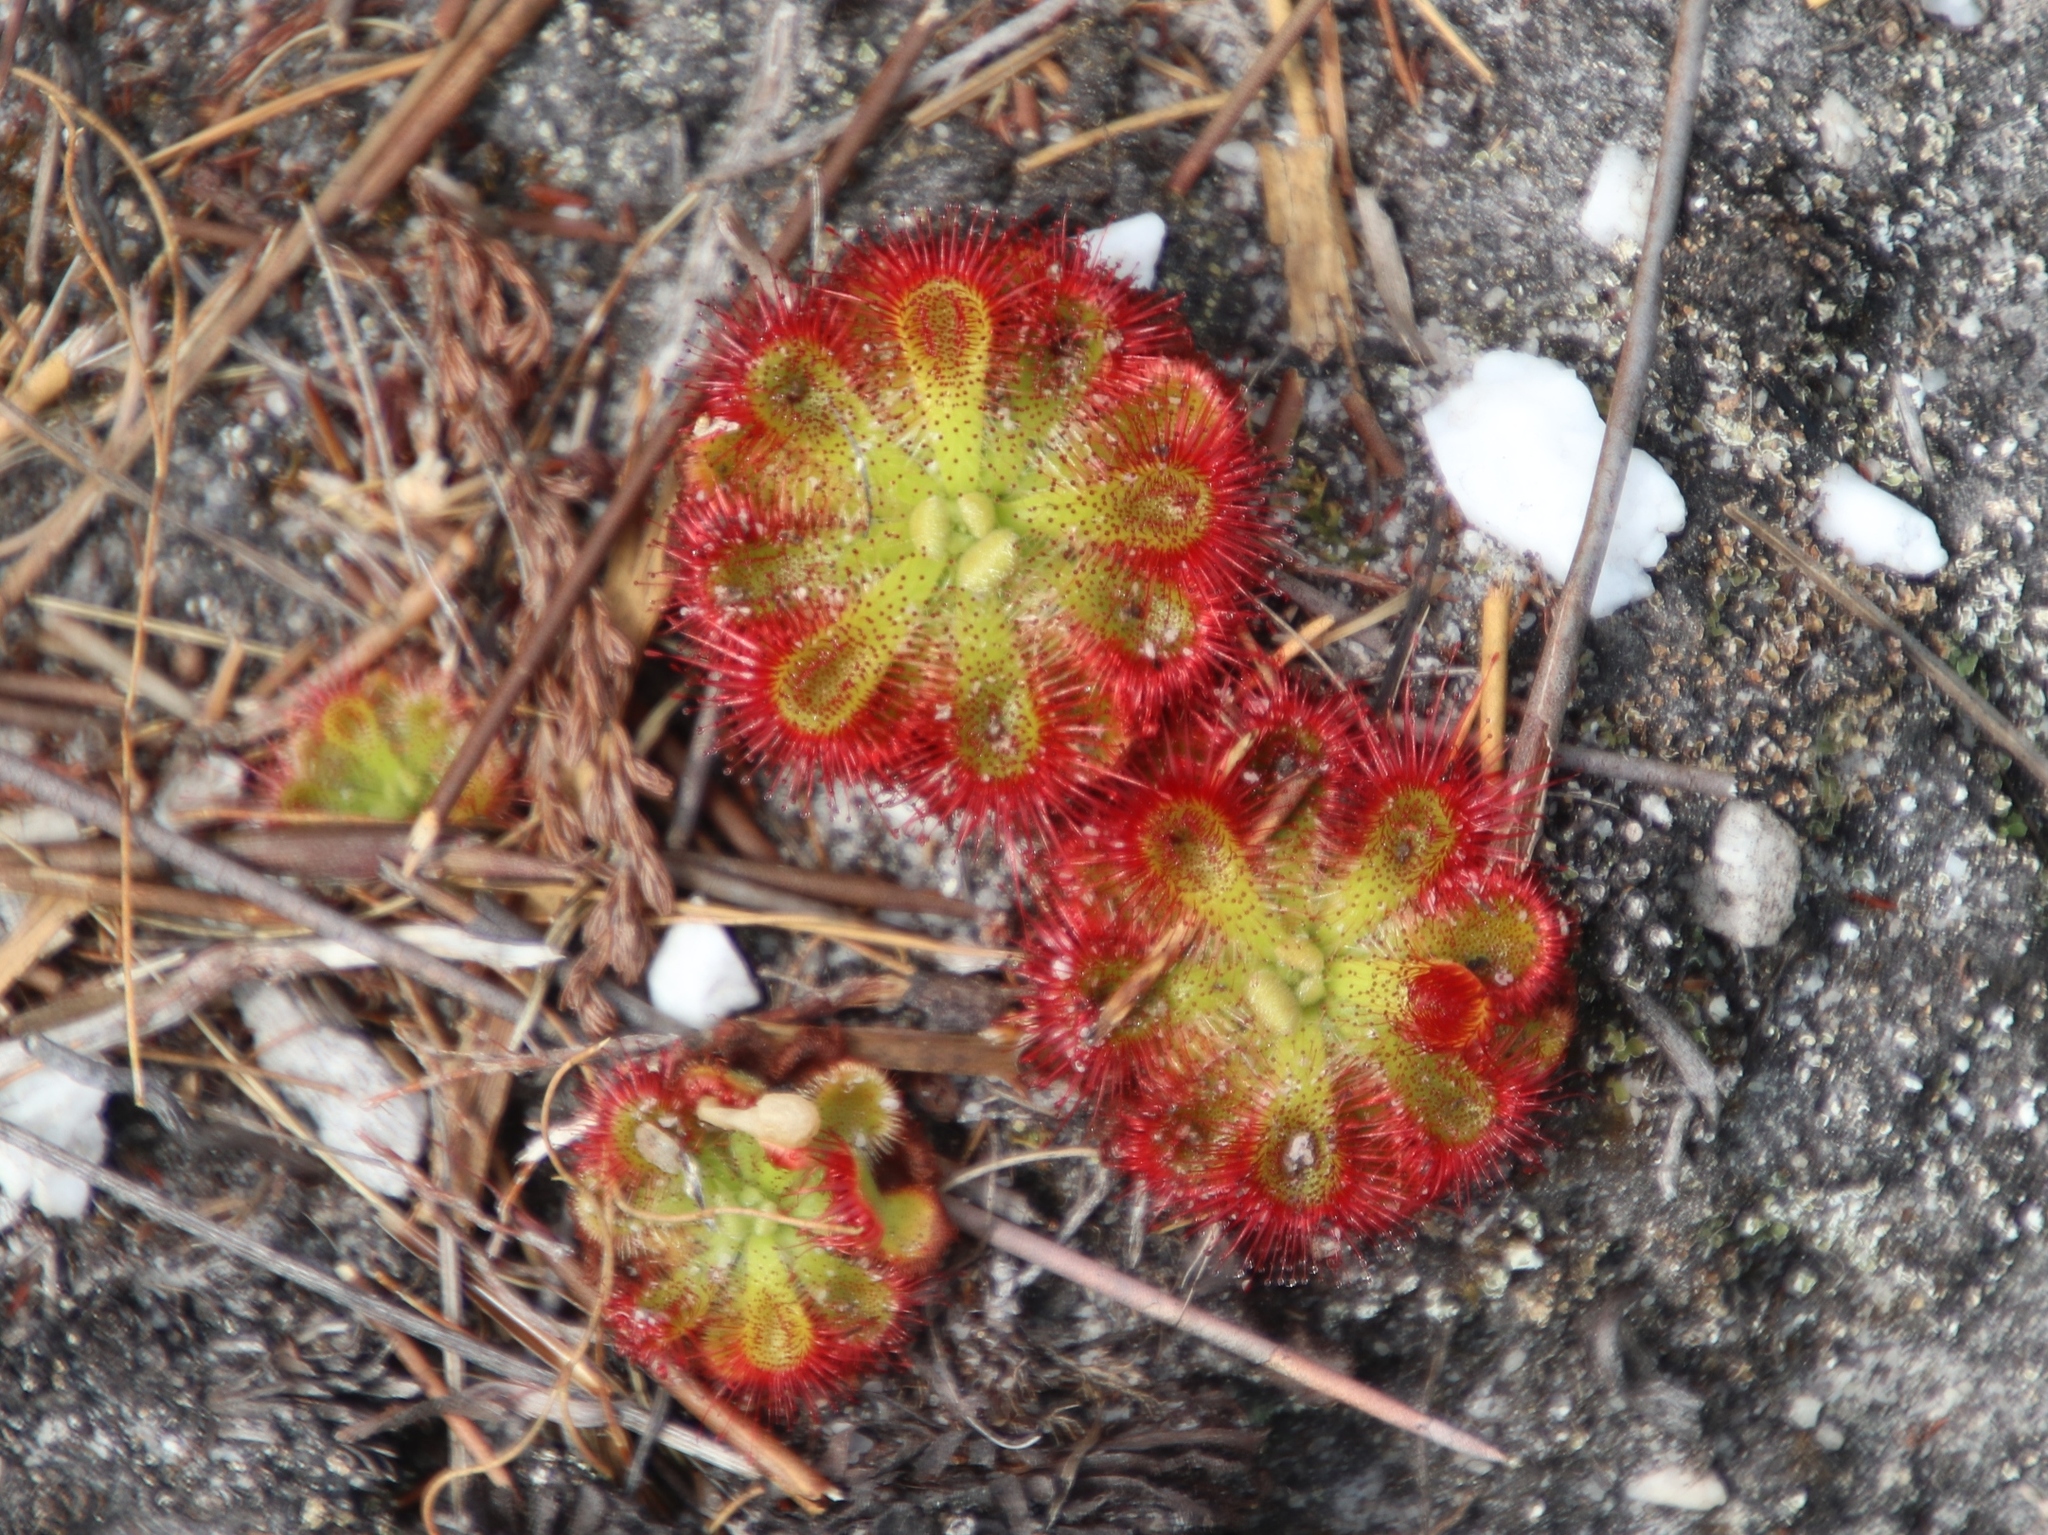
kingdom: Plantae
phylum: Tracheophyta
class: Magnoliopsida
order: Caryophyllales
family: Droseraceae
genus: Drosera
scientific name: Drosera xerophila
